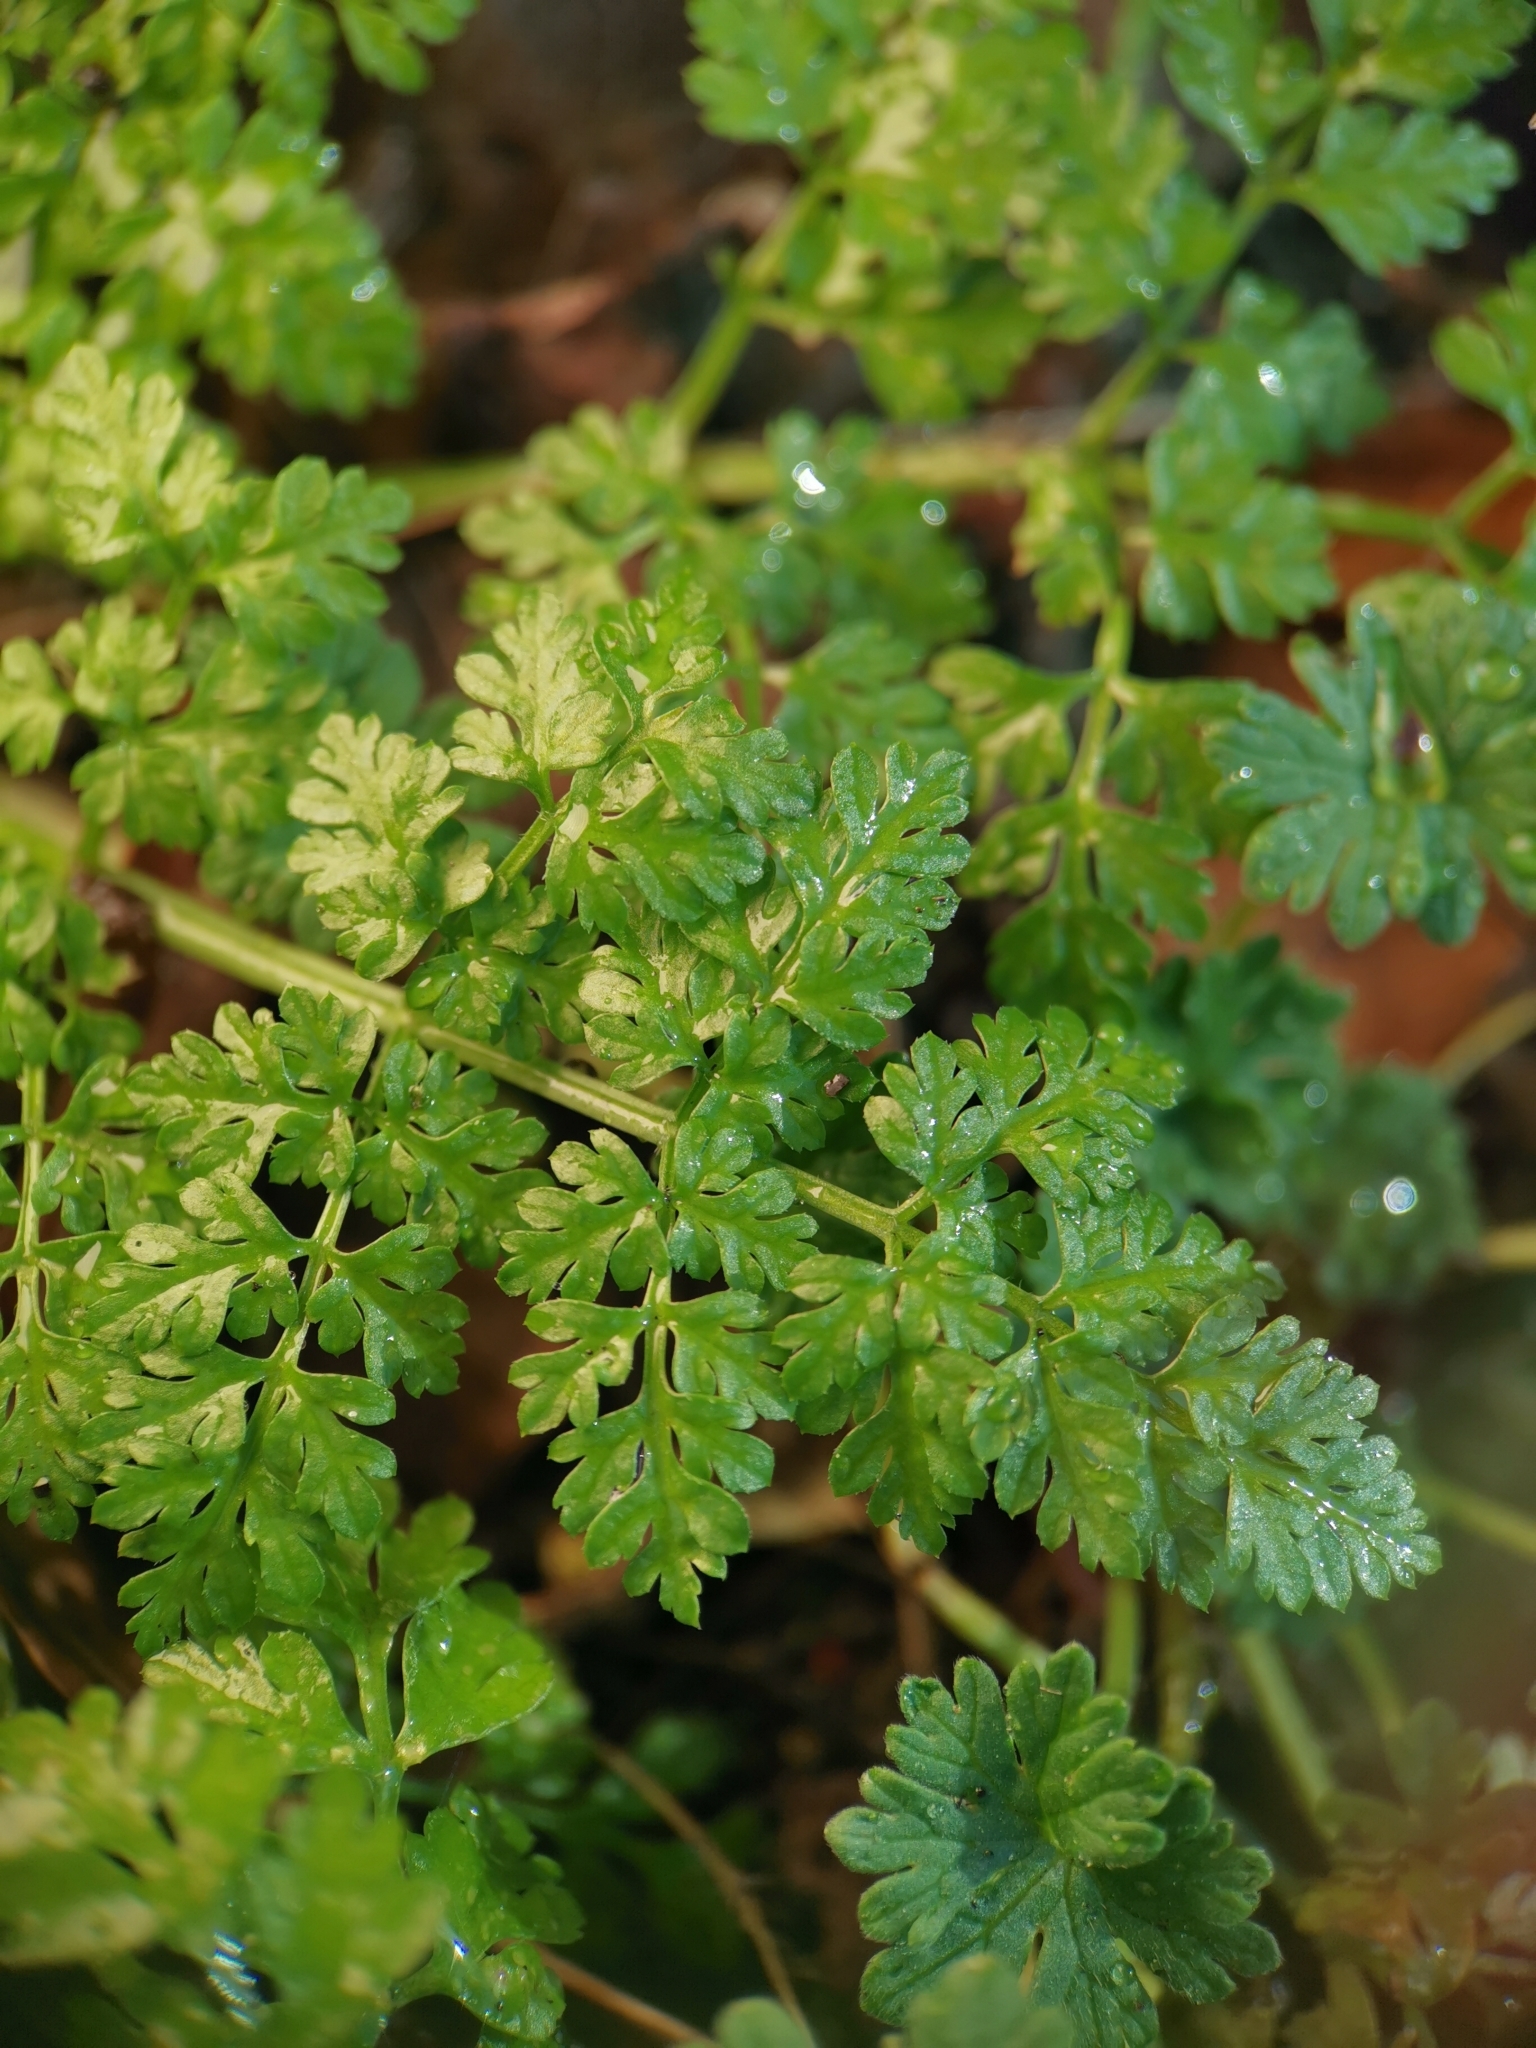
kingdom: Plantae
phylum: Tracheophyta
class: Magnoliopsida
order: Apiales
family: Apiaceae
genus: Anthriscus
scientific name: Anthriscus caucalis
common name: Bur chervil
